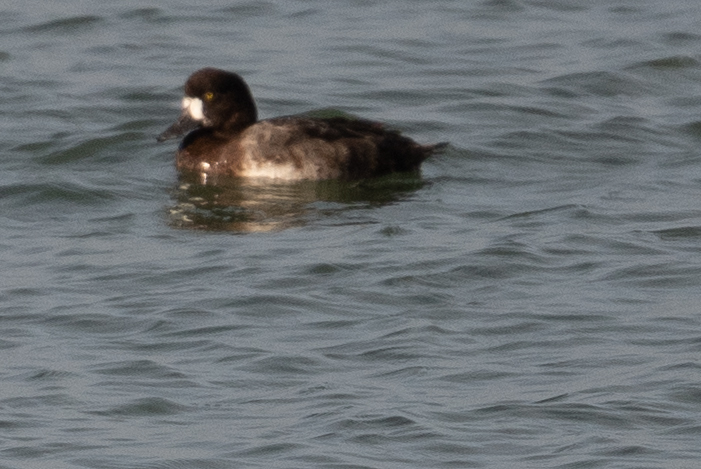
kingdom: Animalia
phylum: Chordata
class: Aves
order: Anseriformes
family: Anatidae
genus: Aythya
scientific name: Aythya marila
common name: Greater scaup
